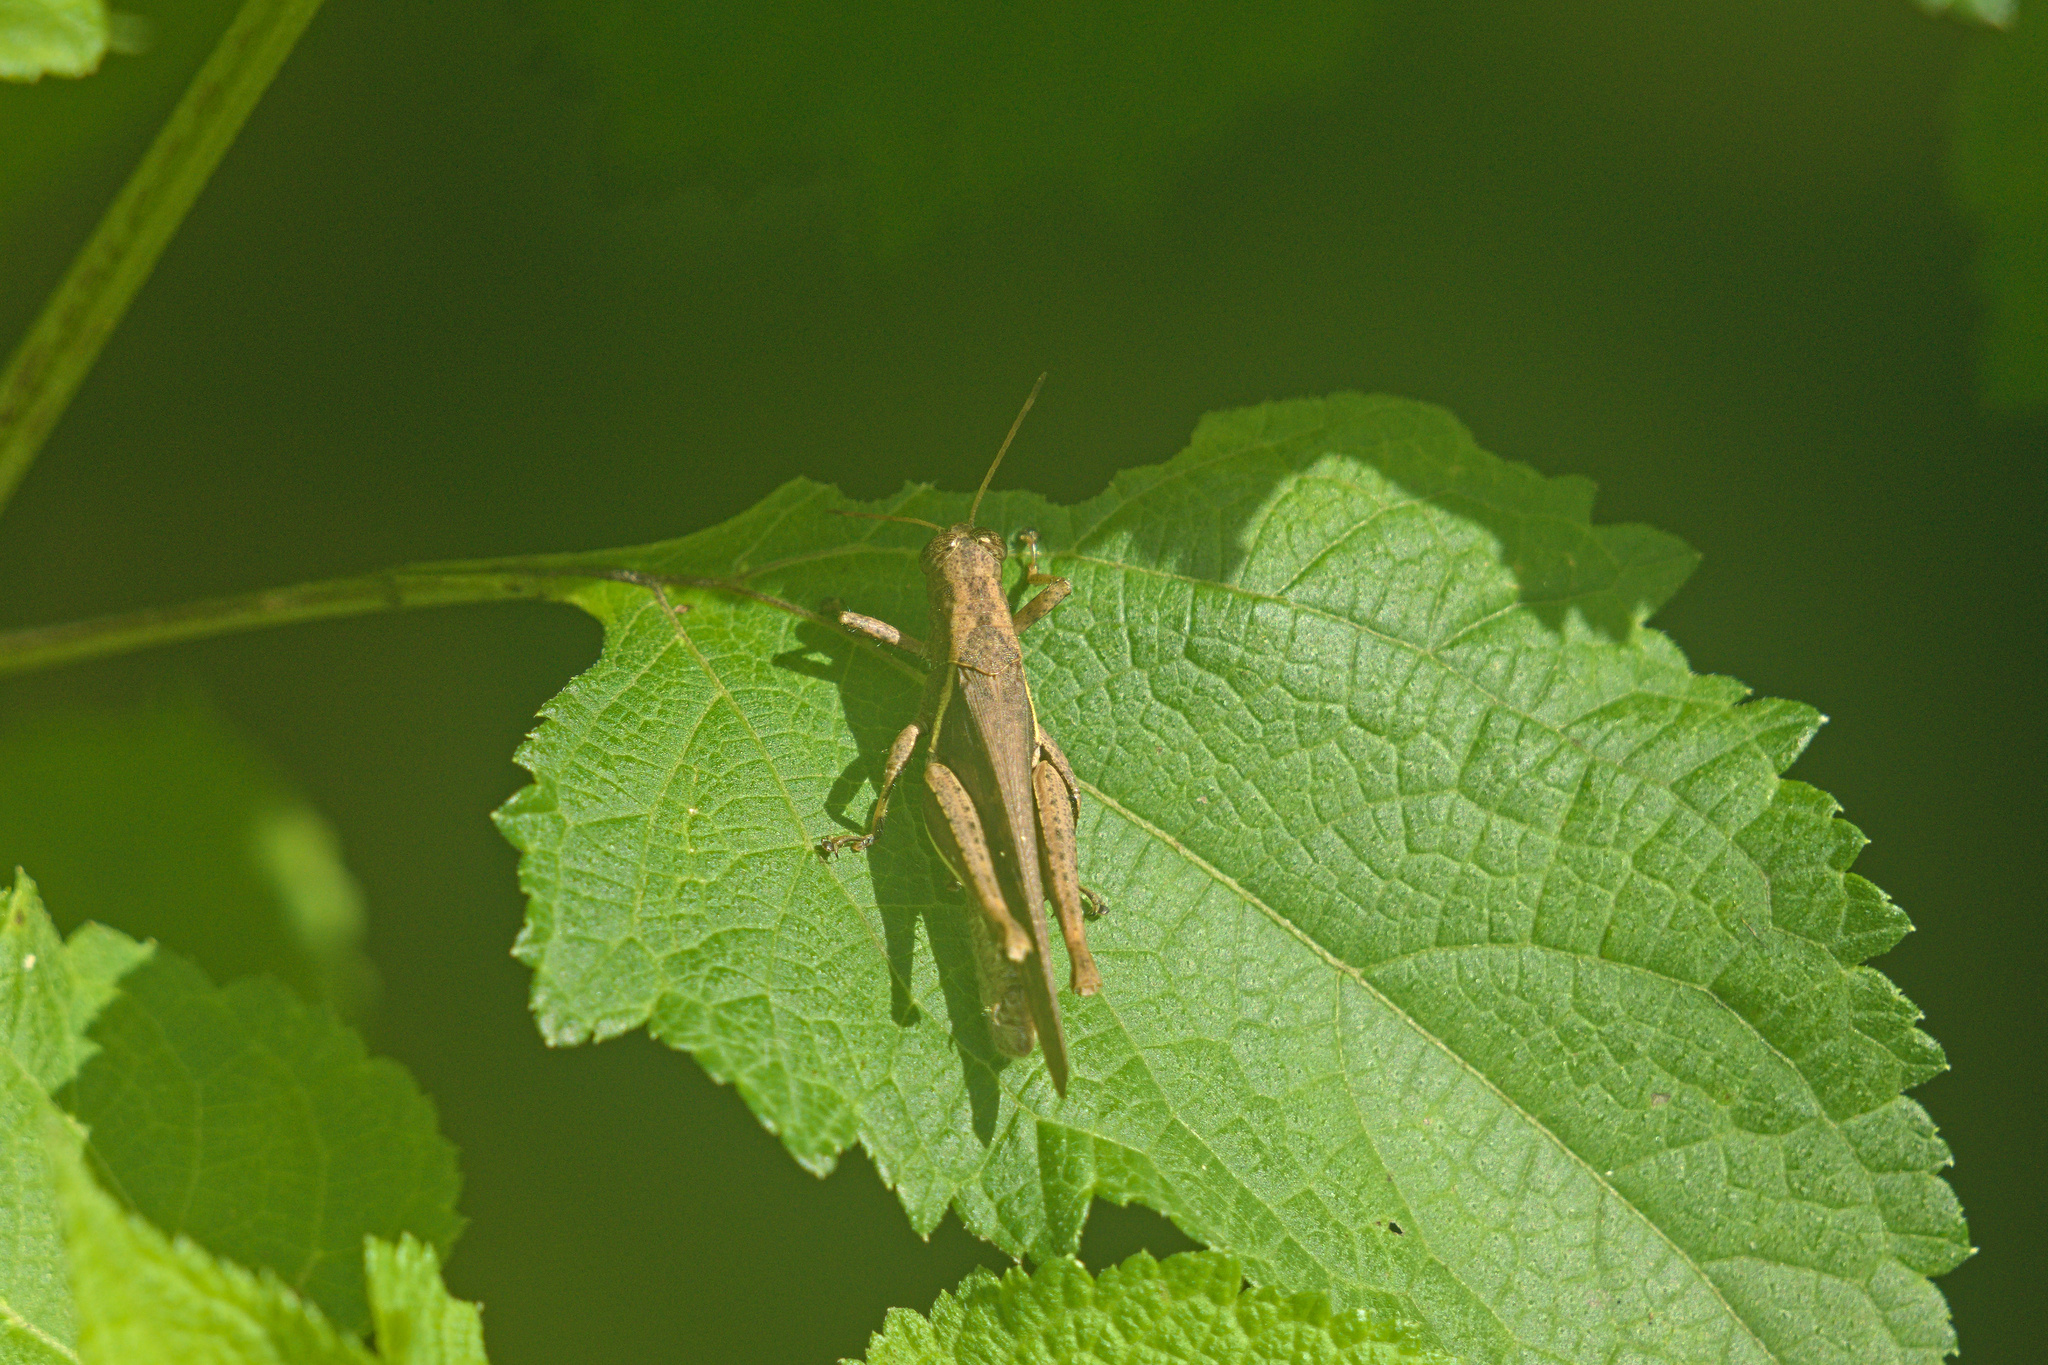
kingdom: Animalia
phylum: Arthropoda
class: Insecta
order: Orthoptera
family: Acrididae
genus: Abracris
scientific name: Abracris flavolineata
